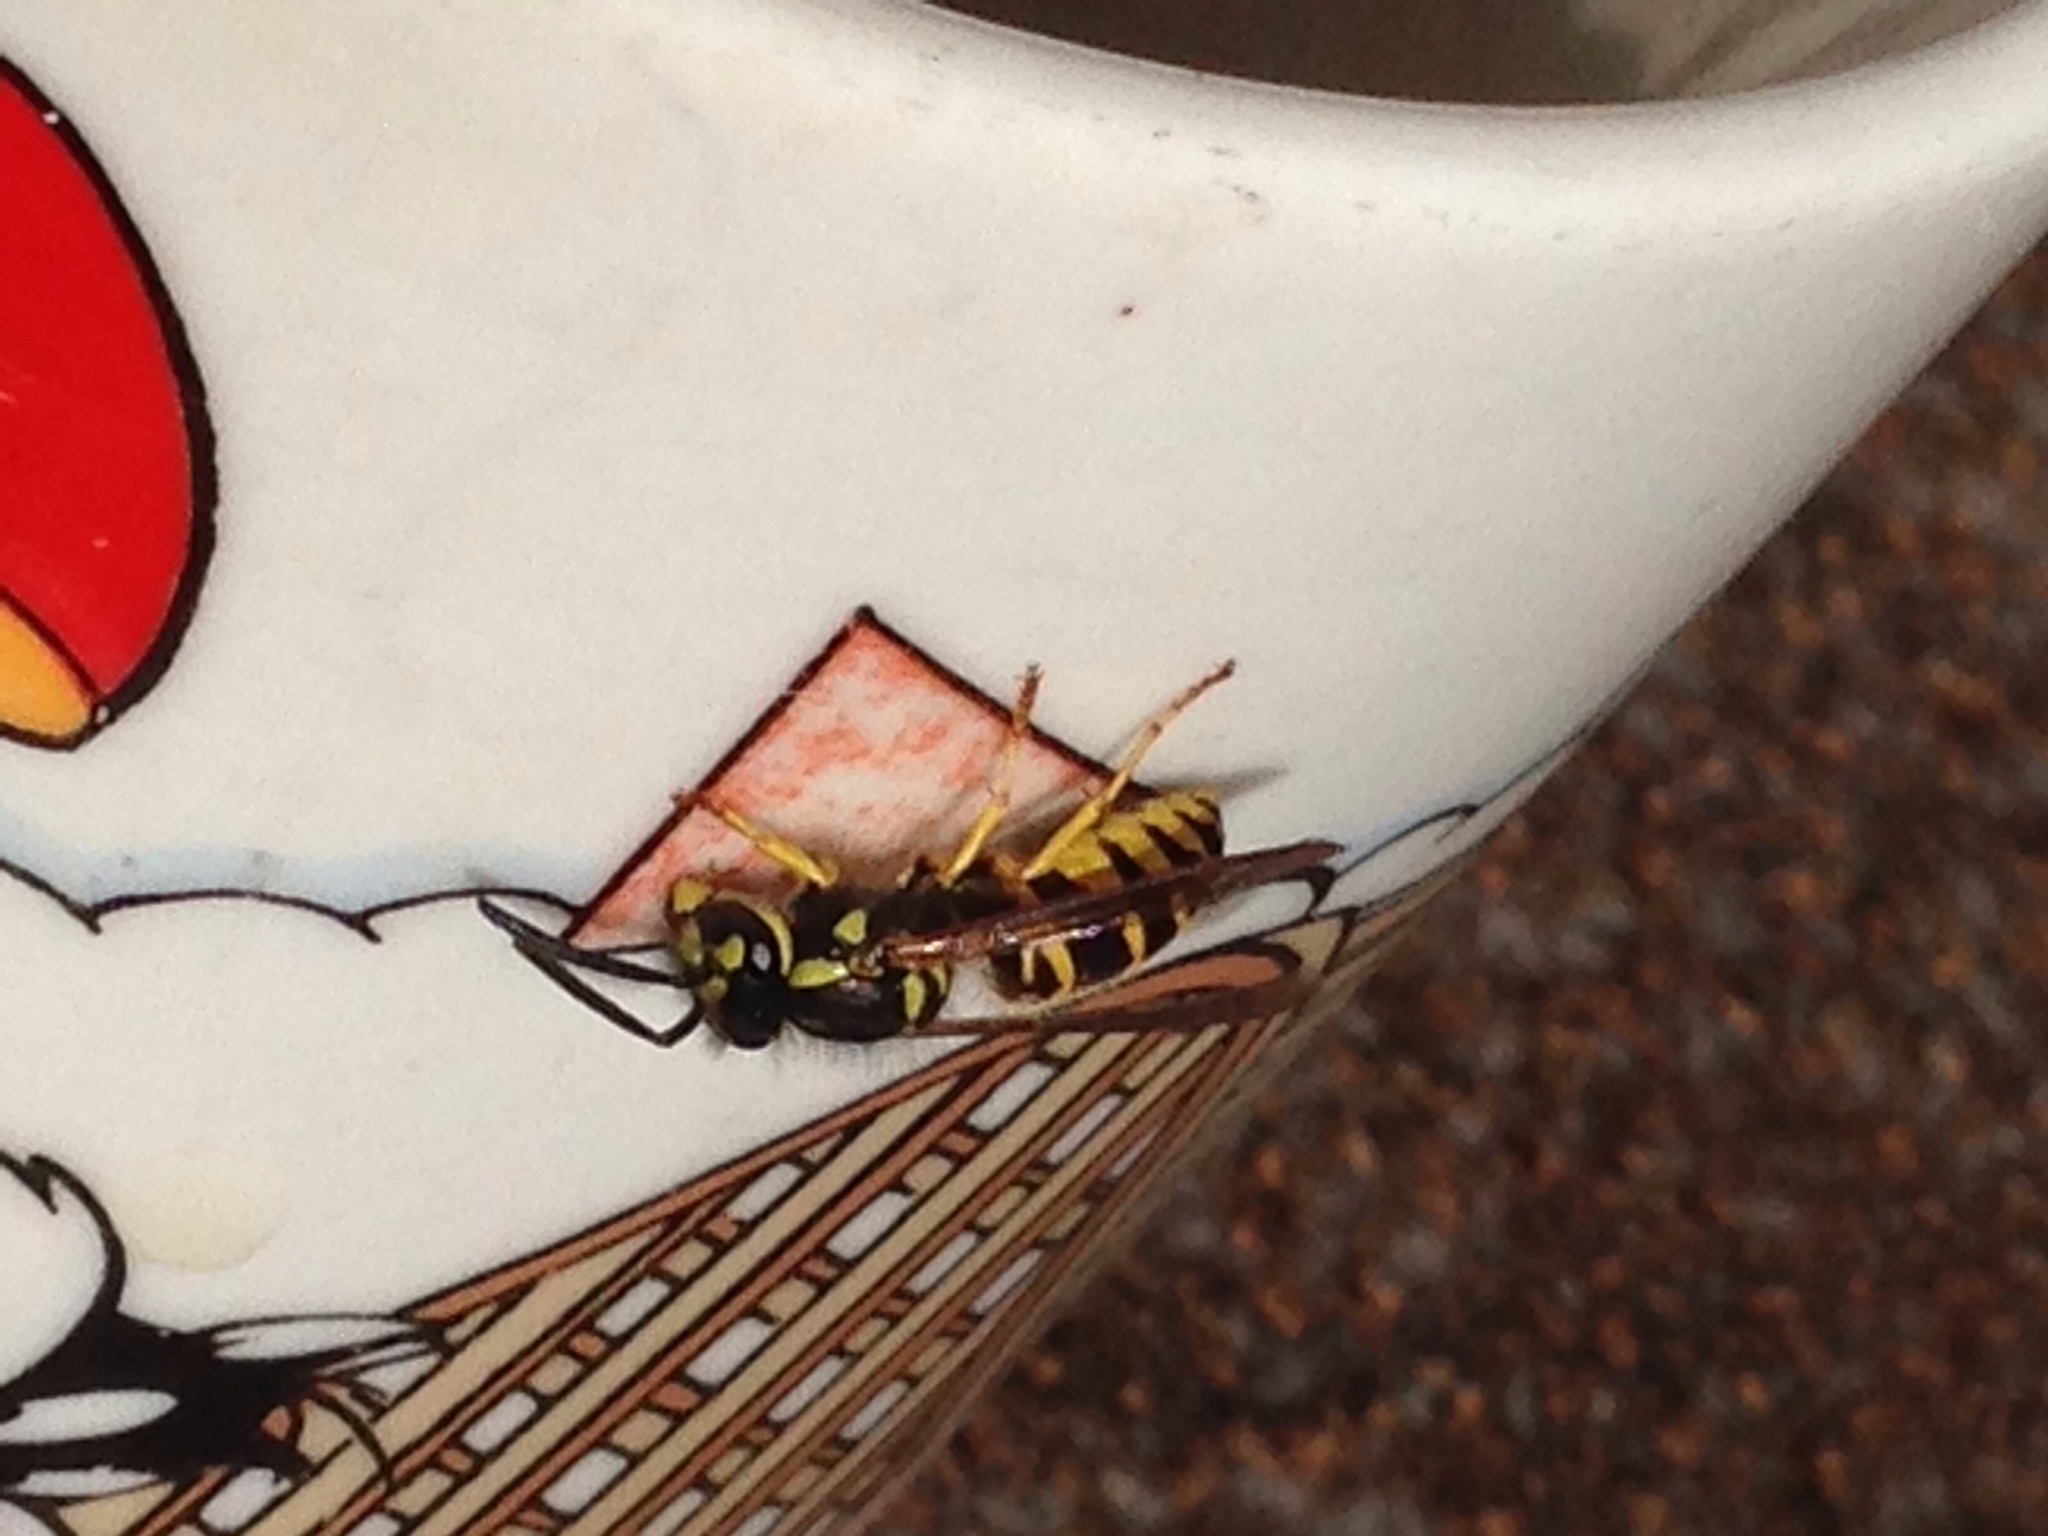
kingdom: Animalia
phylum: Arthropoda
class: Insecta
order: Hymenoptera
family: Vespidae
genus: Vespula
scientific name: Vespula maculifrons
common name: Eastern yellowjacket
